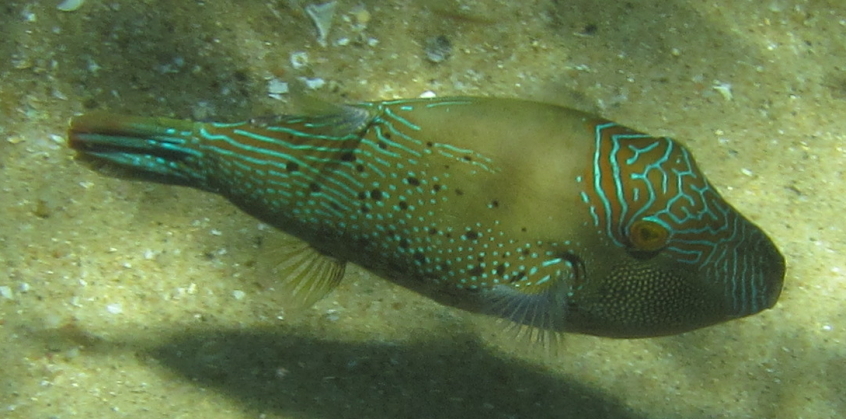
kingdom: Animalia
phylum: Chordata
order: Tetraodontiformes
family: Tetraodontidae
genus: Canthigaster
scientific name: Canthigaster natalensis
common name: Natal toby
